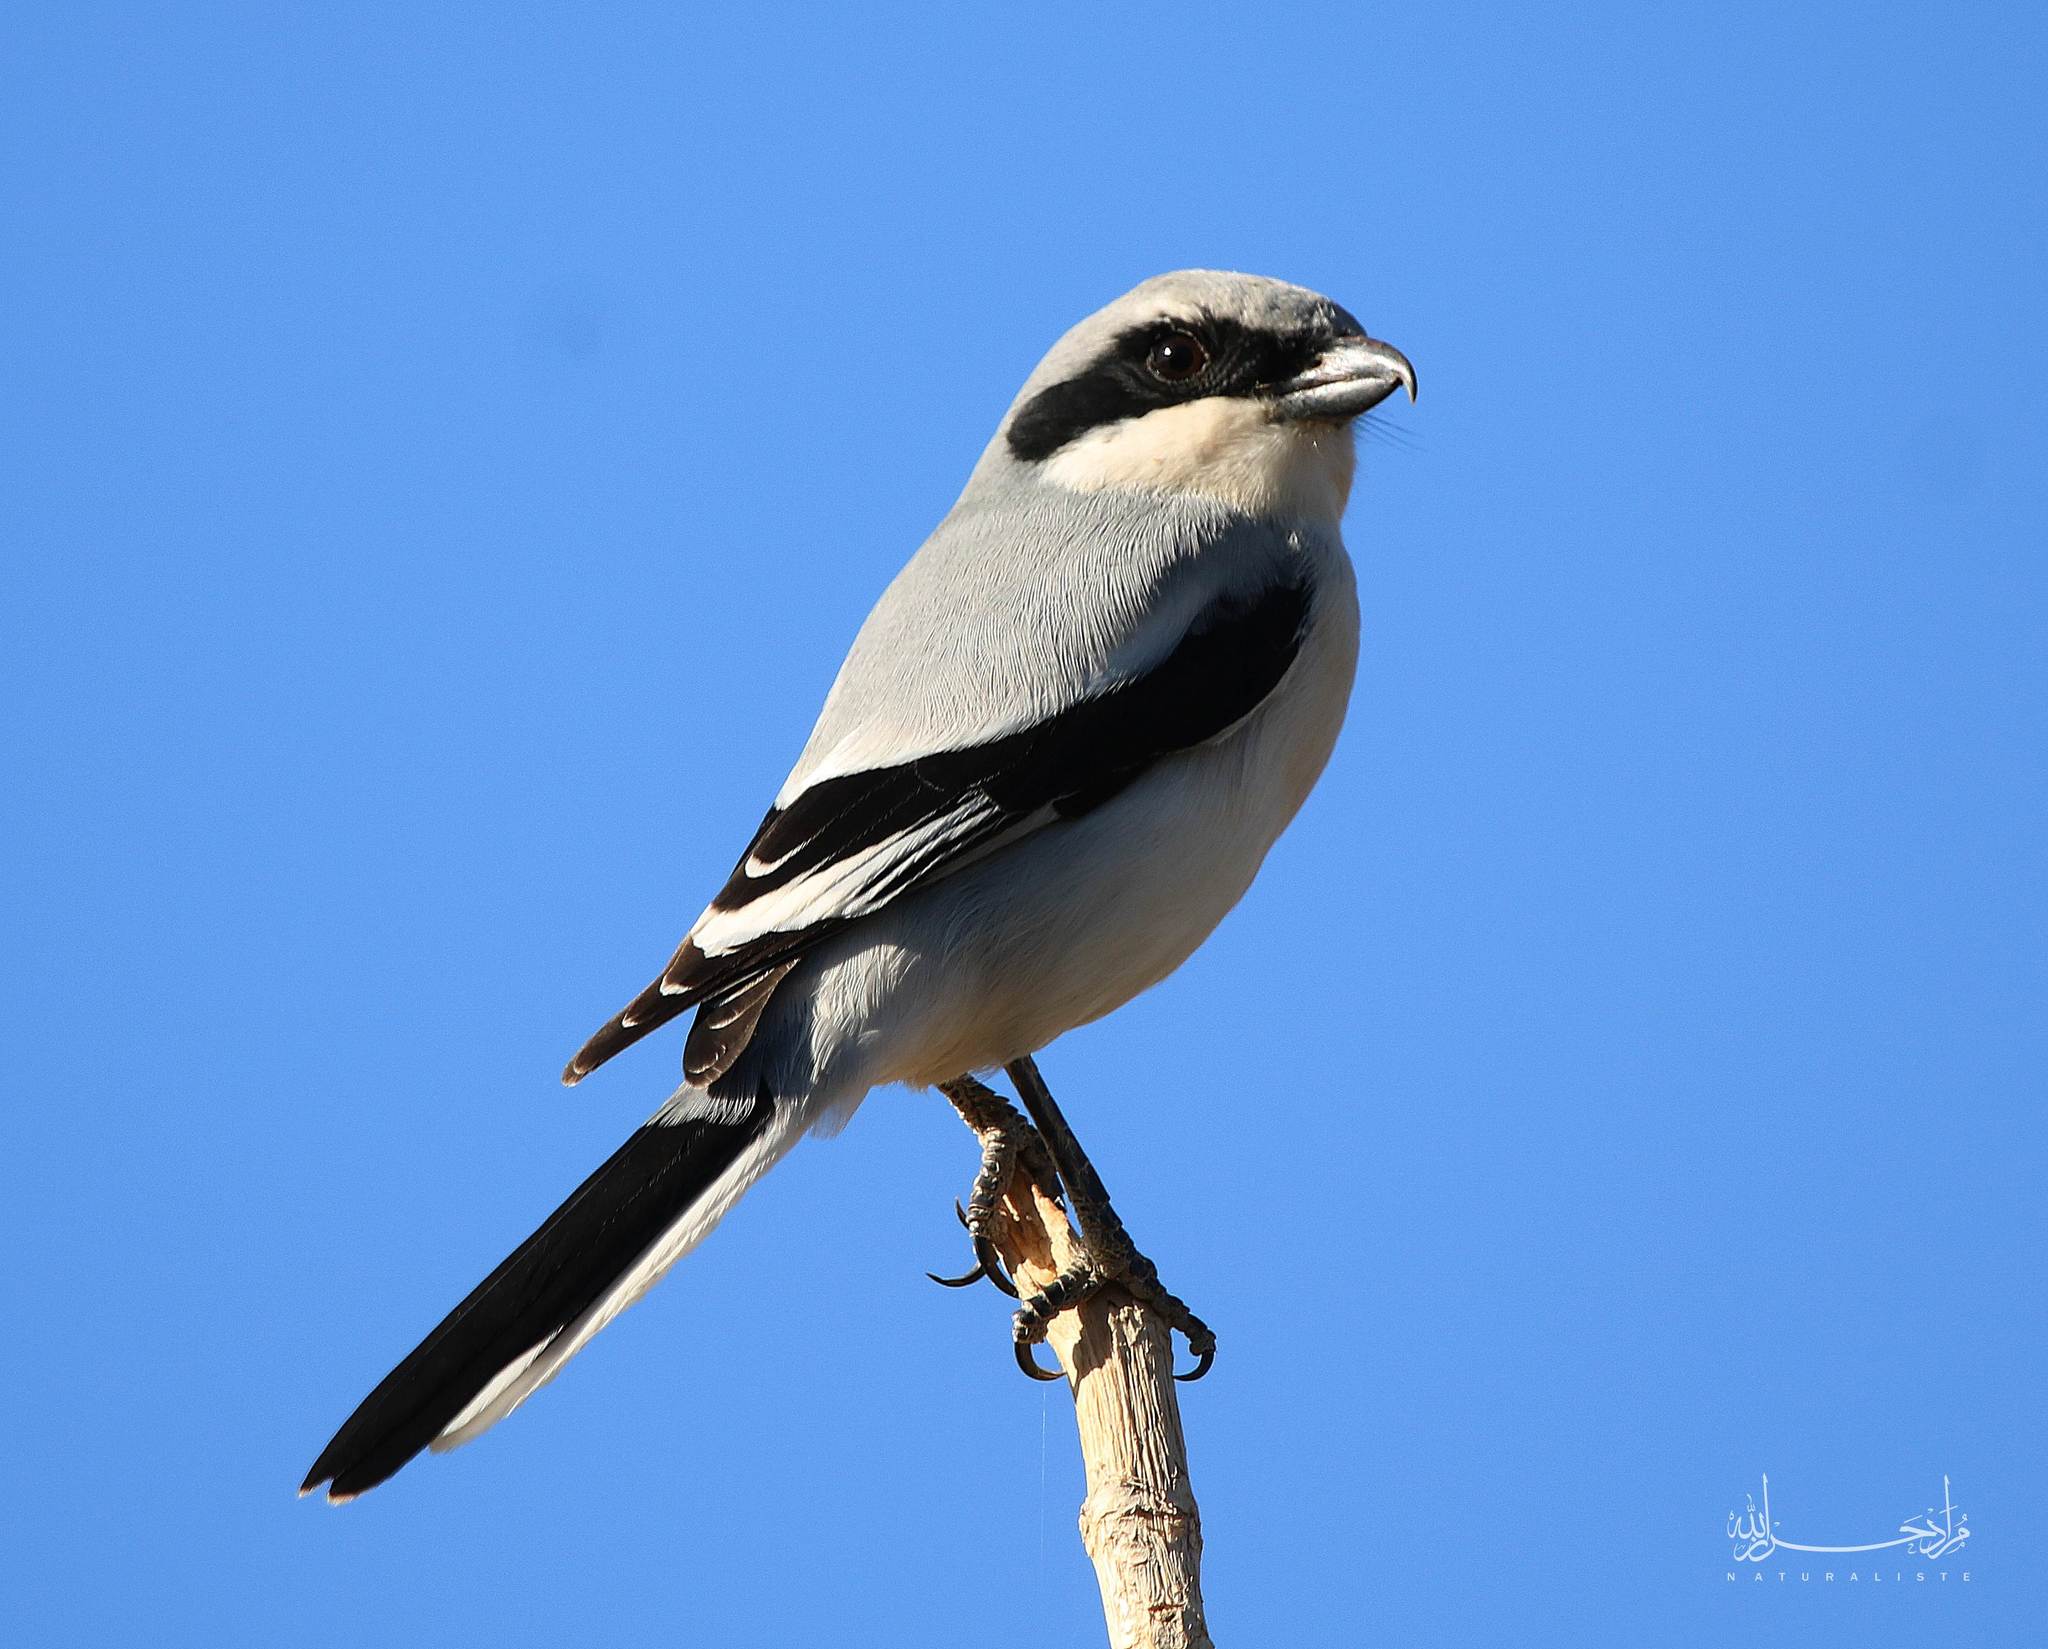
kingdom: Animalia
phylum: Chordata
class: Aves
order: Passeriformes
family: Laniidae
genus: Lanius
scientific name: Lanius excubitor
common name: Great grey shrike
